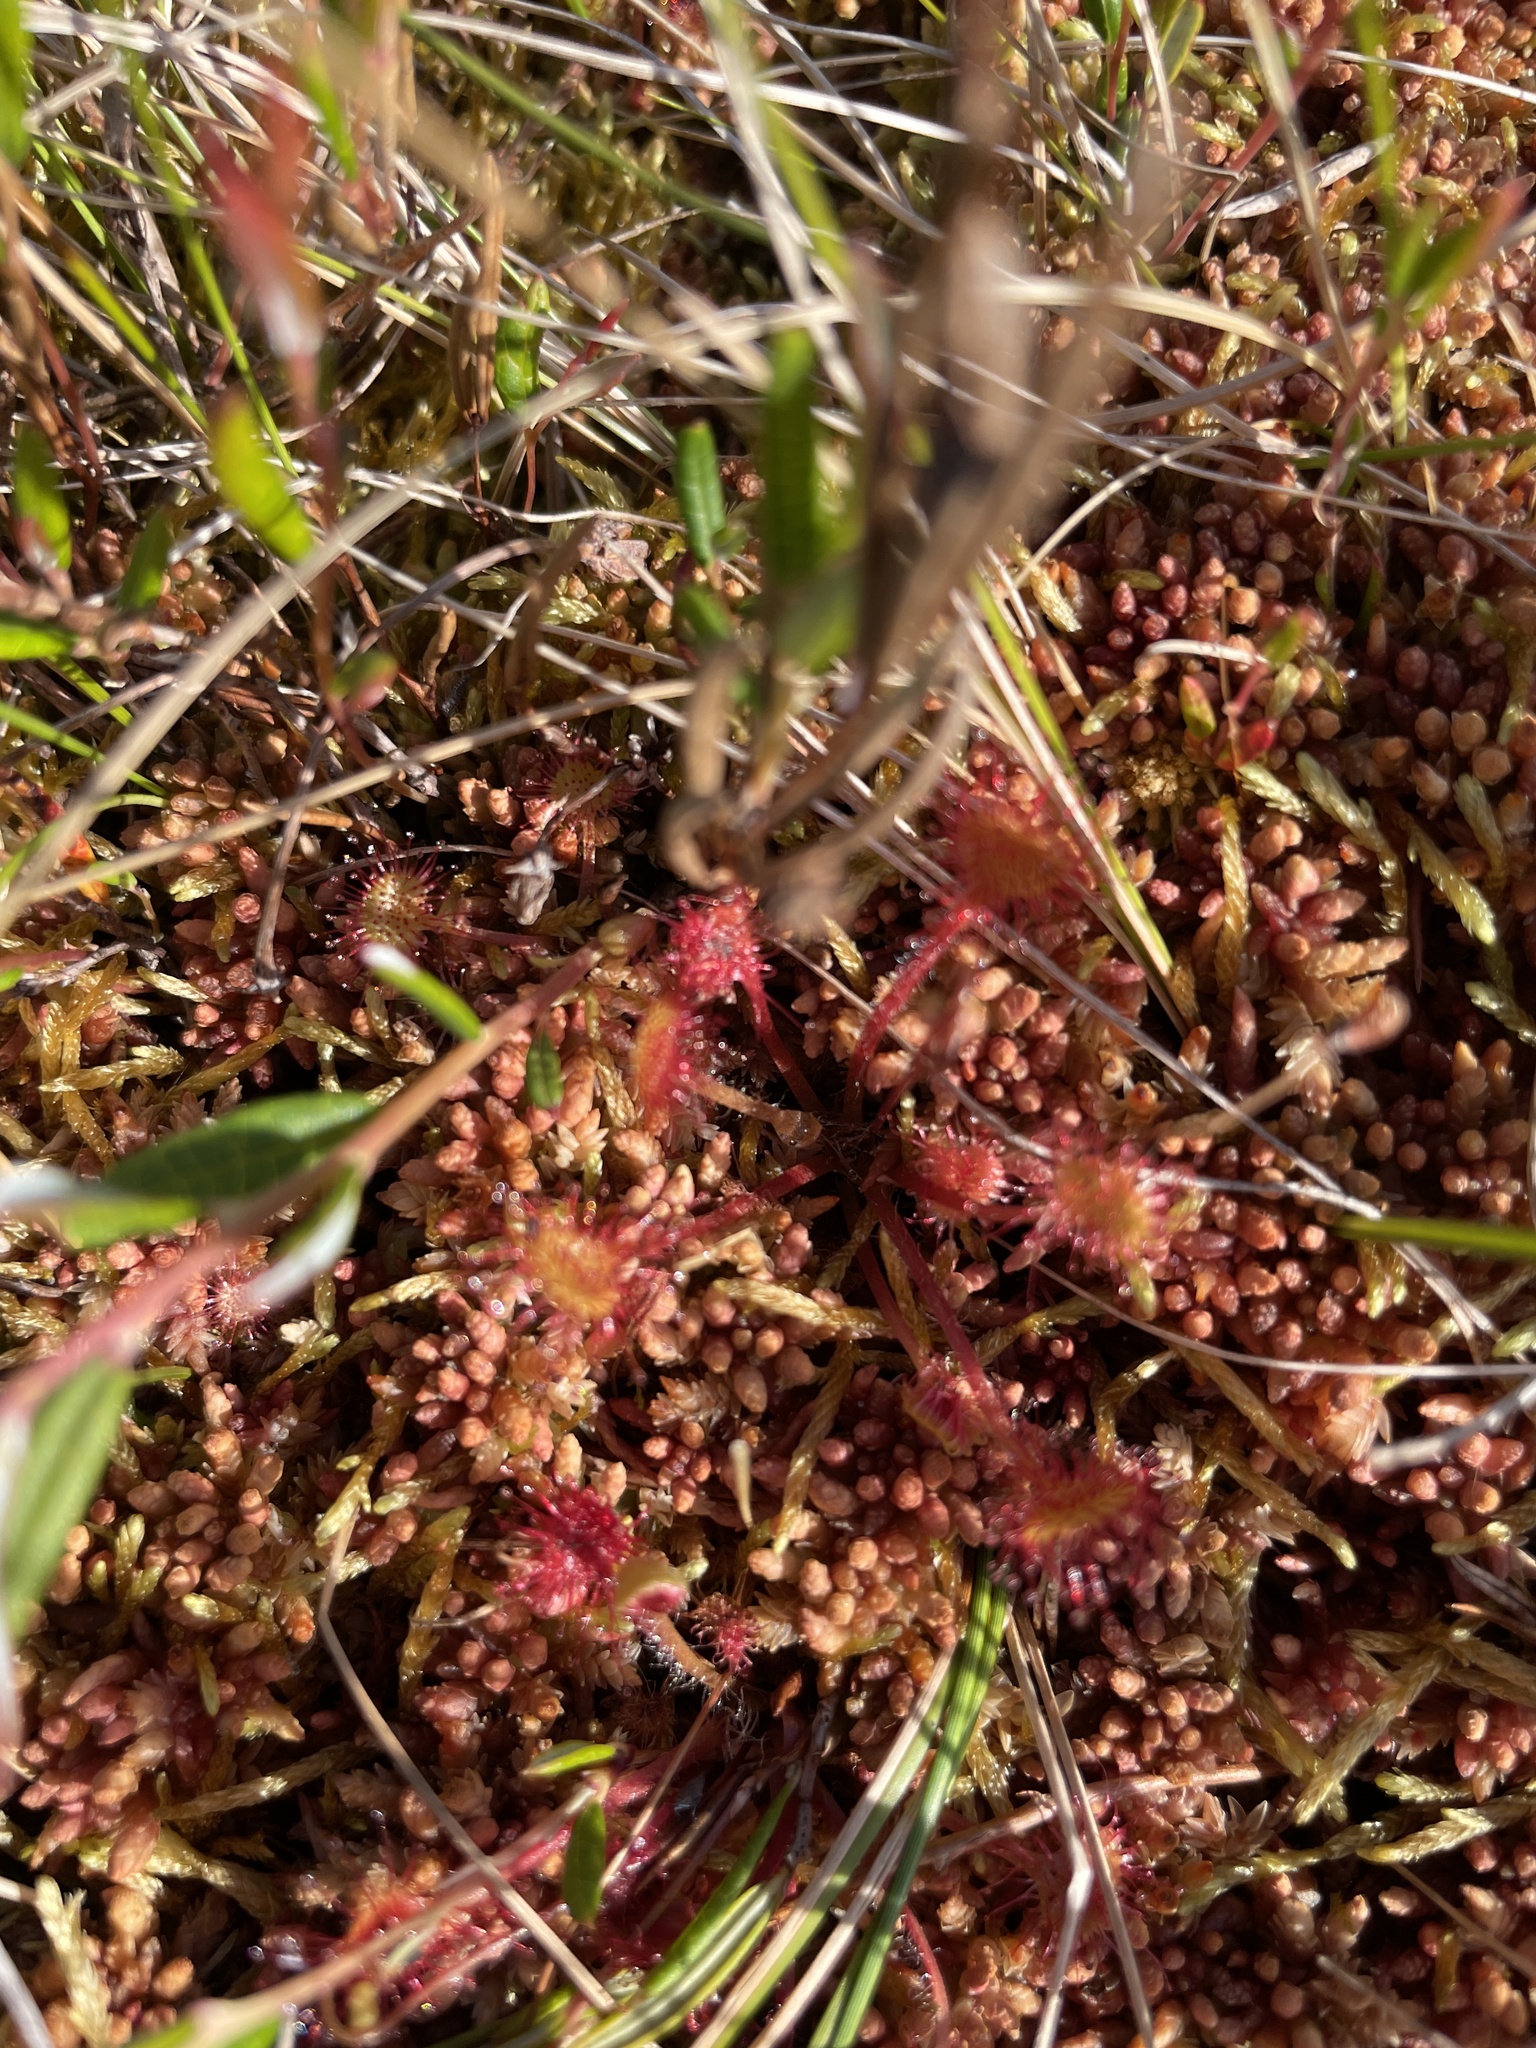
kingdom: Plantae
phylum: Tracheophyta
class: Magnoliopsida
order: Caryophyllales
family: Droseraceae
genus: Drosera
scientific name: Drosera rotundifolia
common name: Round-leaved sundew
